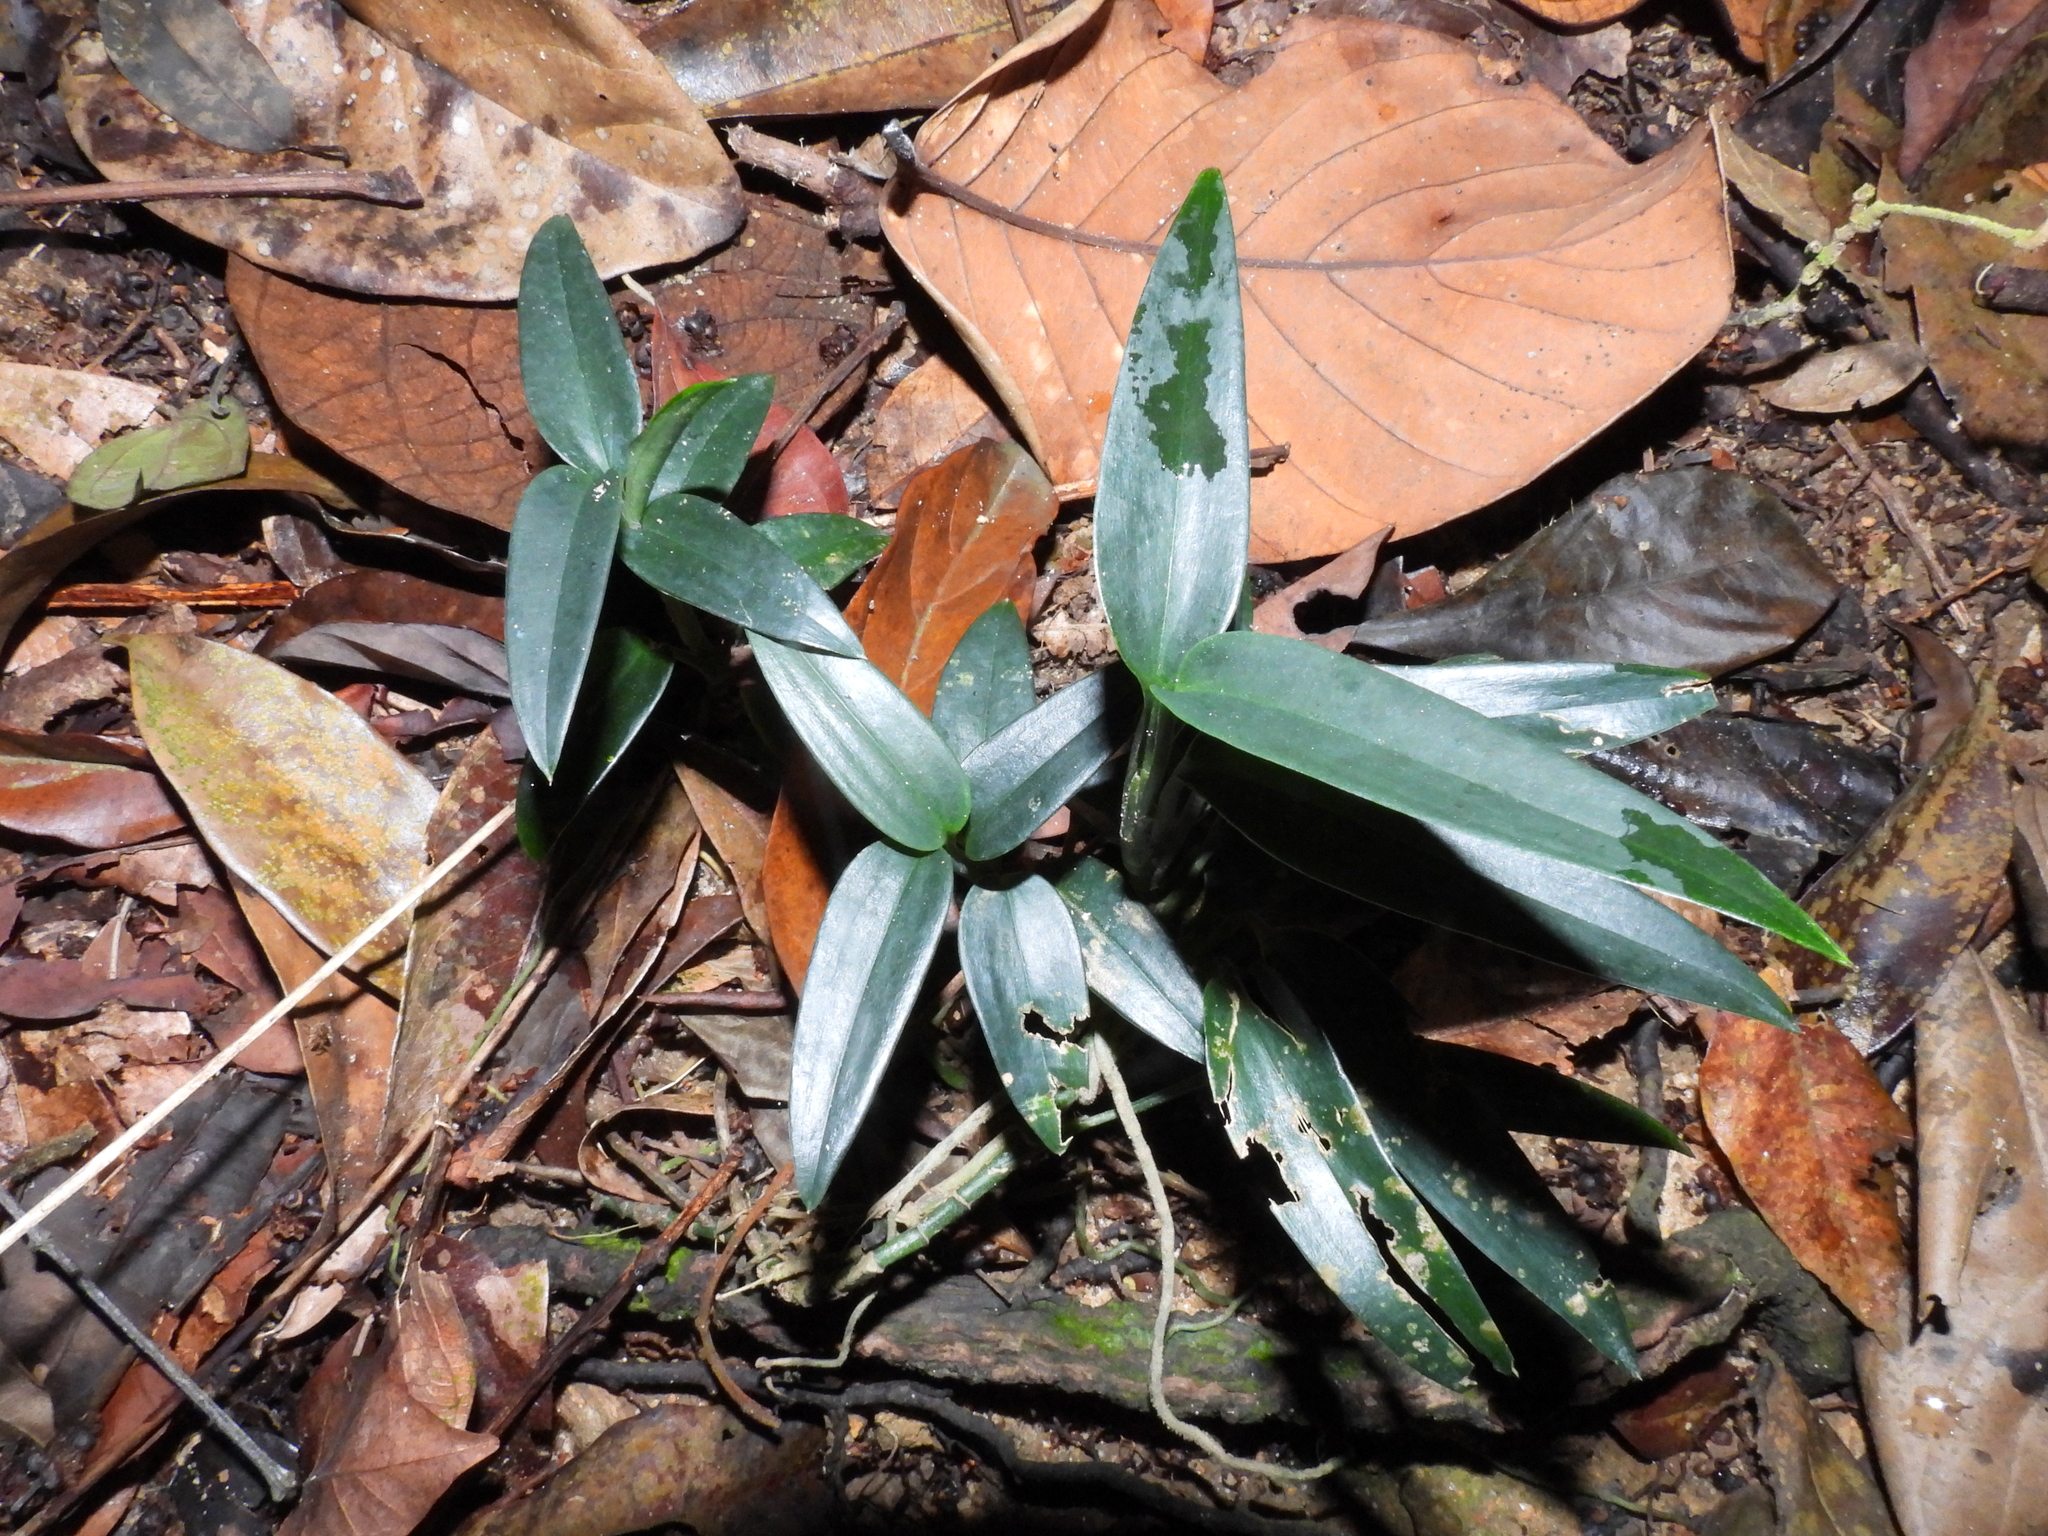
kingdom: Plantae
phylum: Tracheophyta
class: Liliopsida
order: Alismatales
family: Araceae
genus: Scindapsus
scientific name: Scindapsus hederaceus
